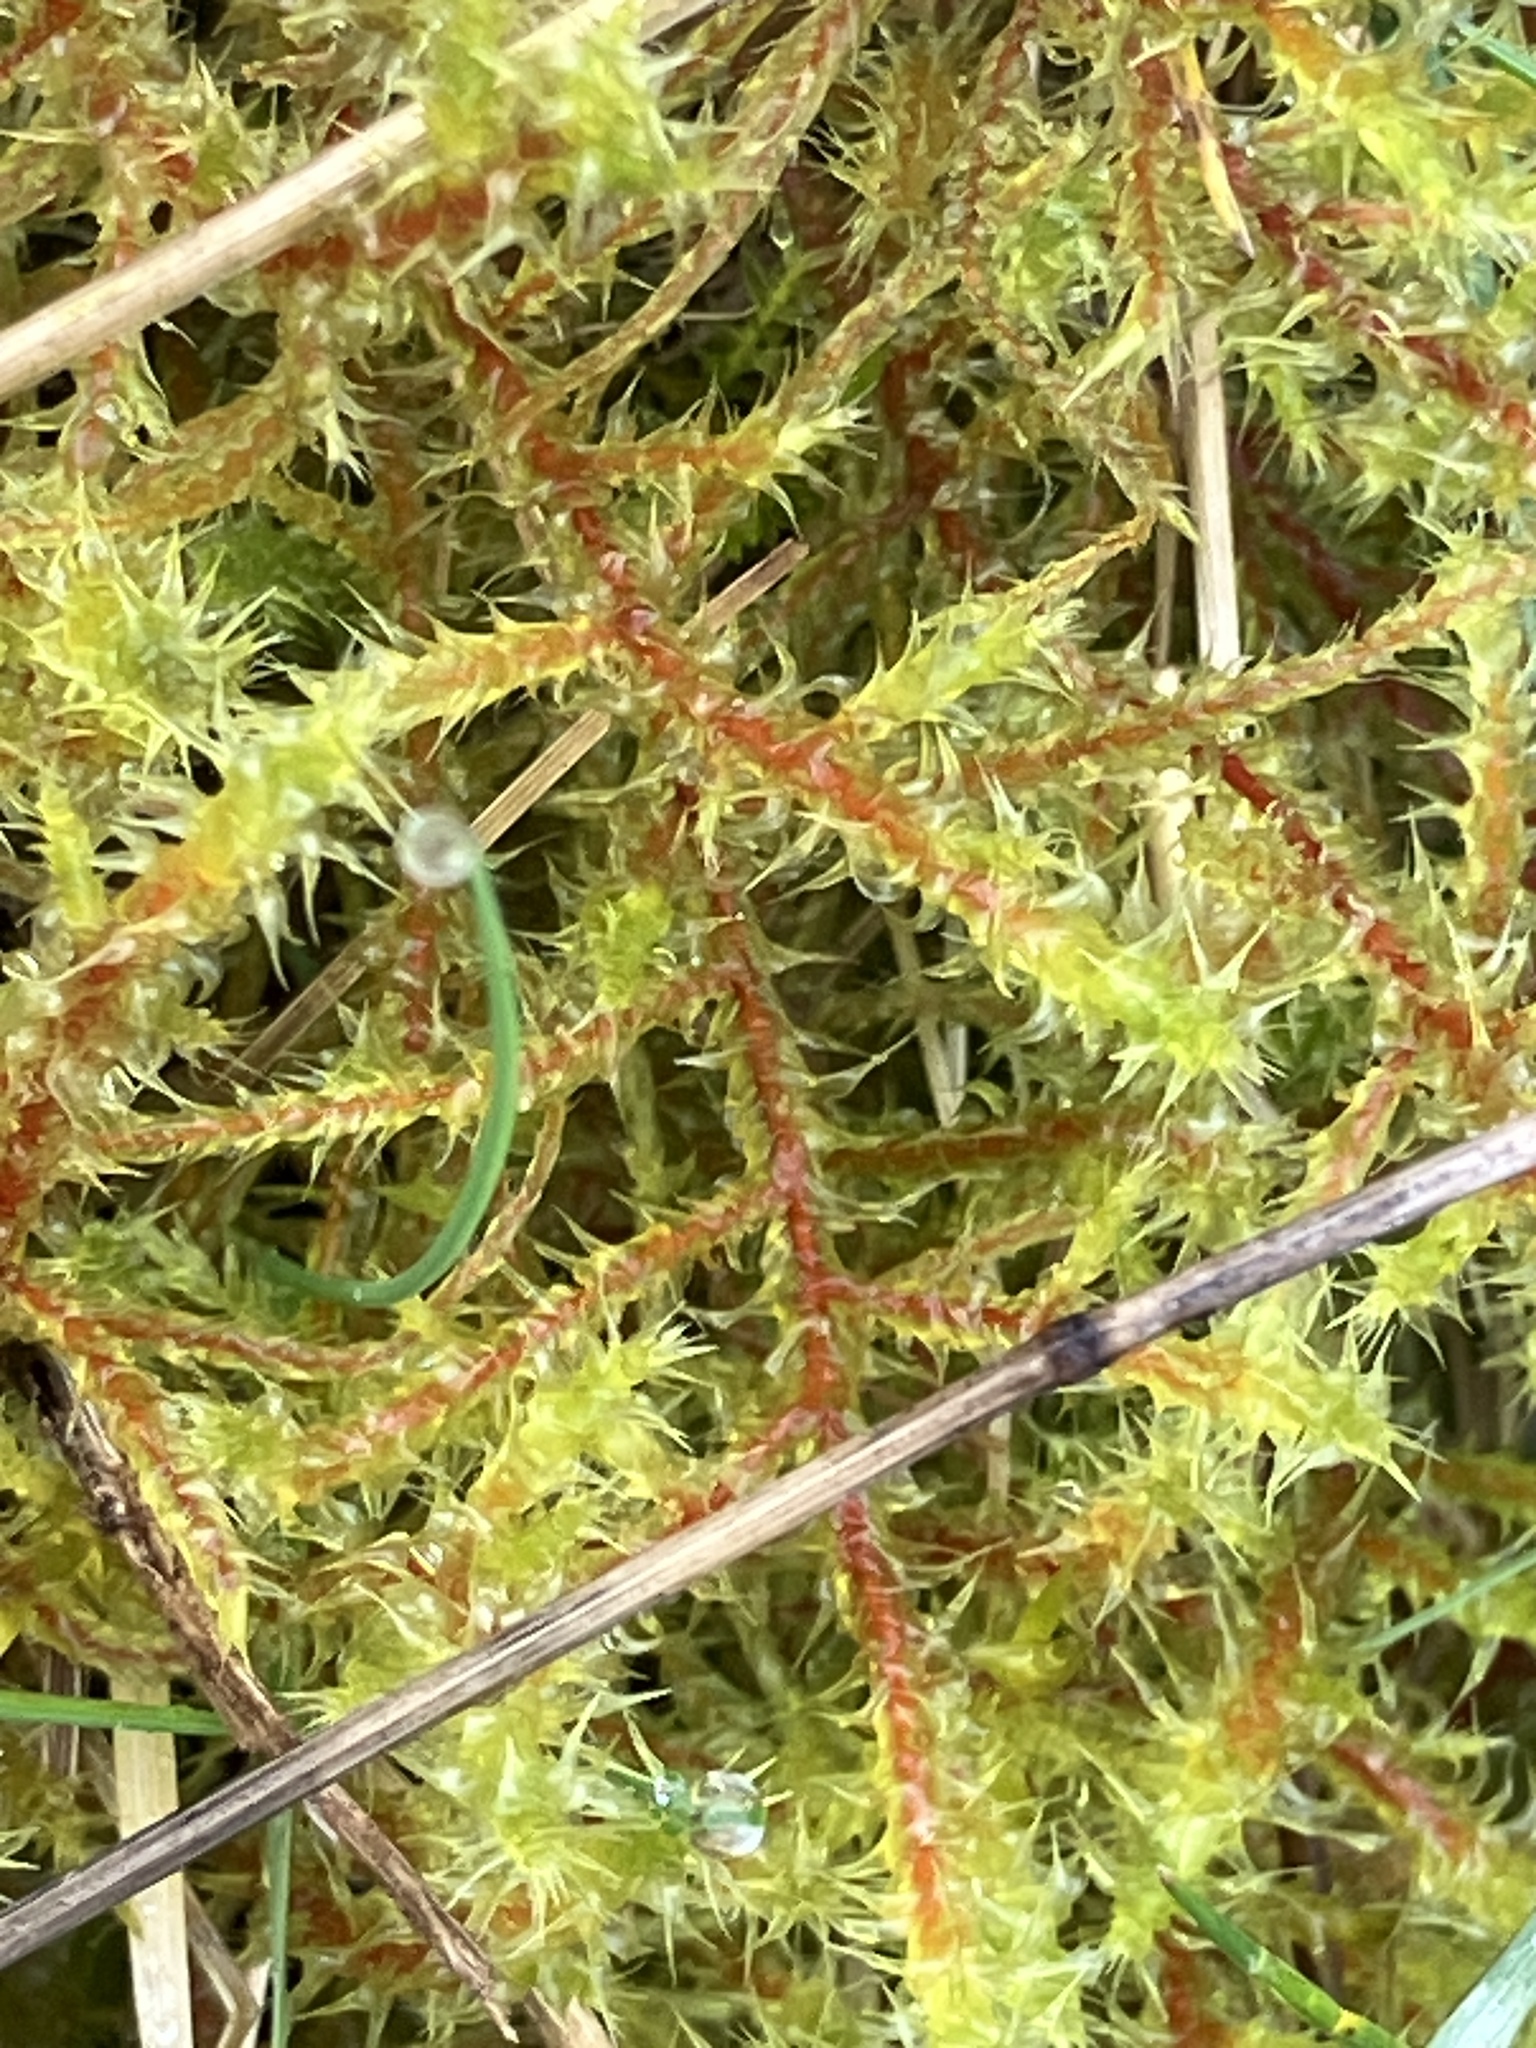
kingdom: Plantae
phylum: Bryophyta
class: Bryopsida
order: Hypnales
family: Hylocomiaceae
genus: Rhytidiadelphus
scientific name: Rhytidiadelphus squarrosus
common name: Springy turf-moss
